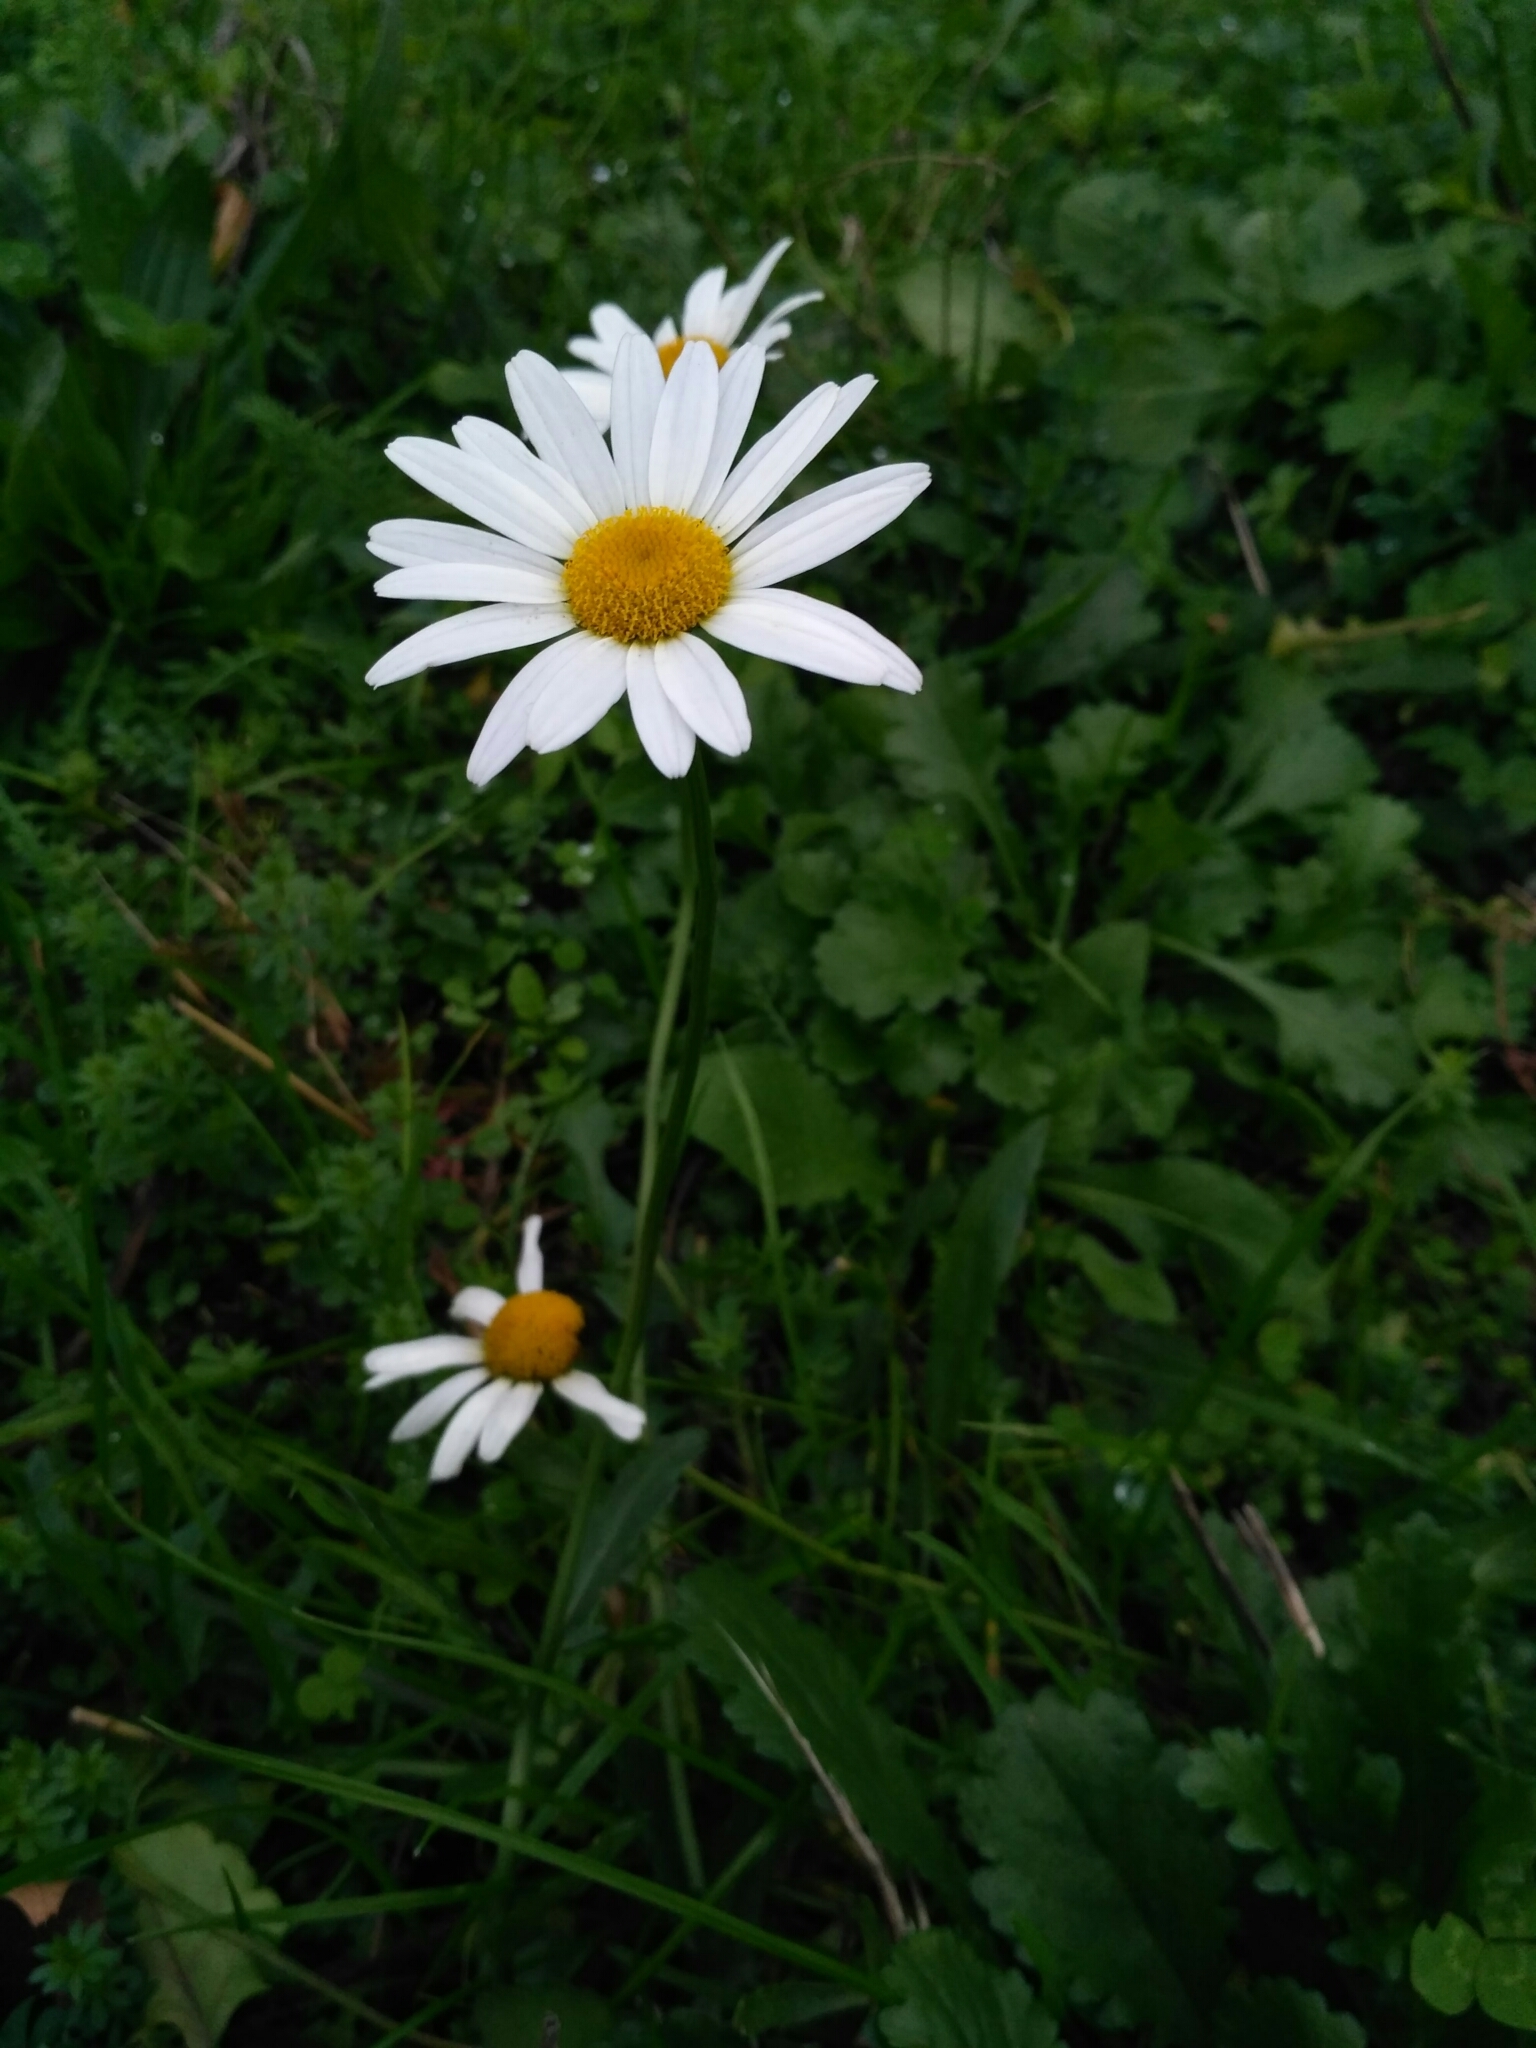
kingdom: Plantae
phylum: Tracheophyta
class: Magnoliopsida
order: Asterales
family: Asteraceae
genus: Leucanthemum
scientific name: Leucanthemum vulgare
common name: Oxeye daisy
